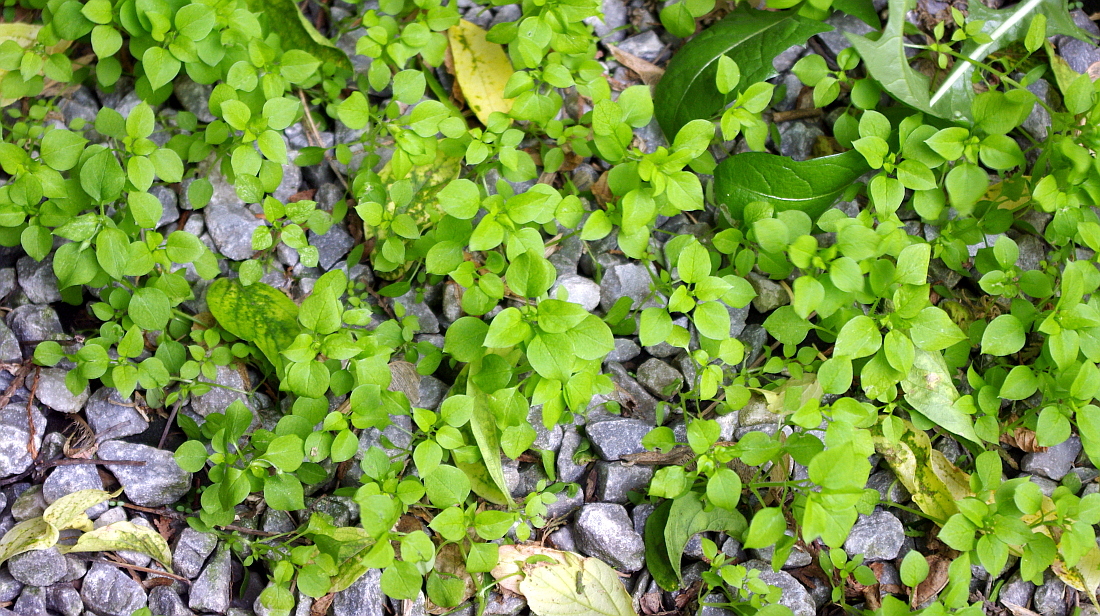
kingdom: Plantae
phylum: Tracheophyta
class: Magnoliopsida
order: Caryophyllales
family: Caryophyllaceae
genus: Stellaria
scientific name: Stellaria media
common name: Common chickweed
